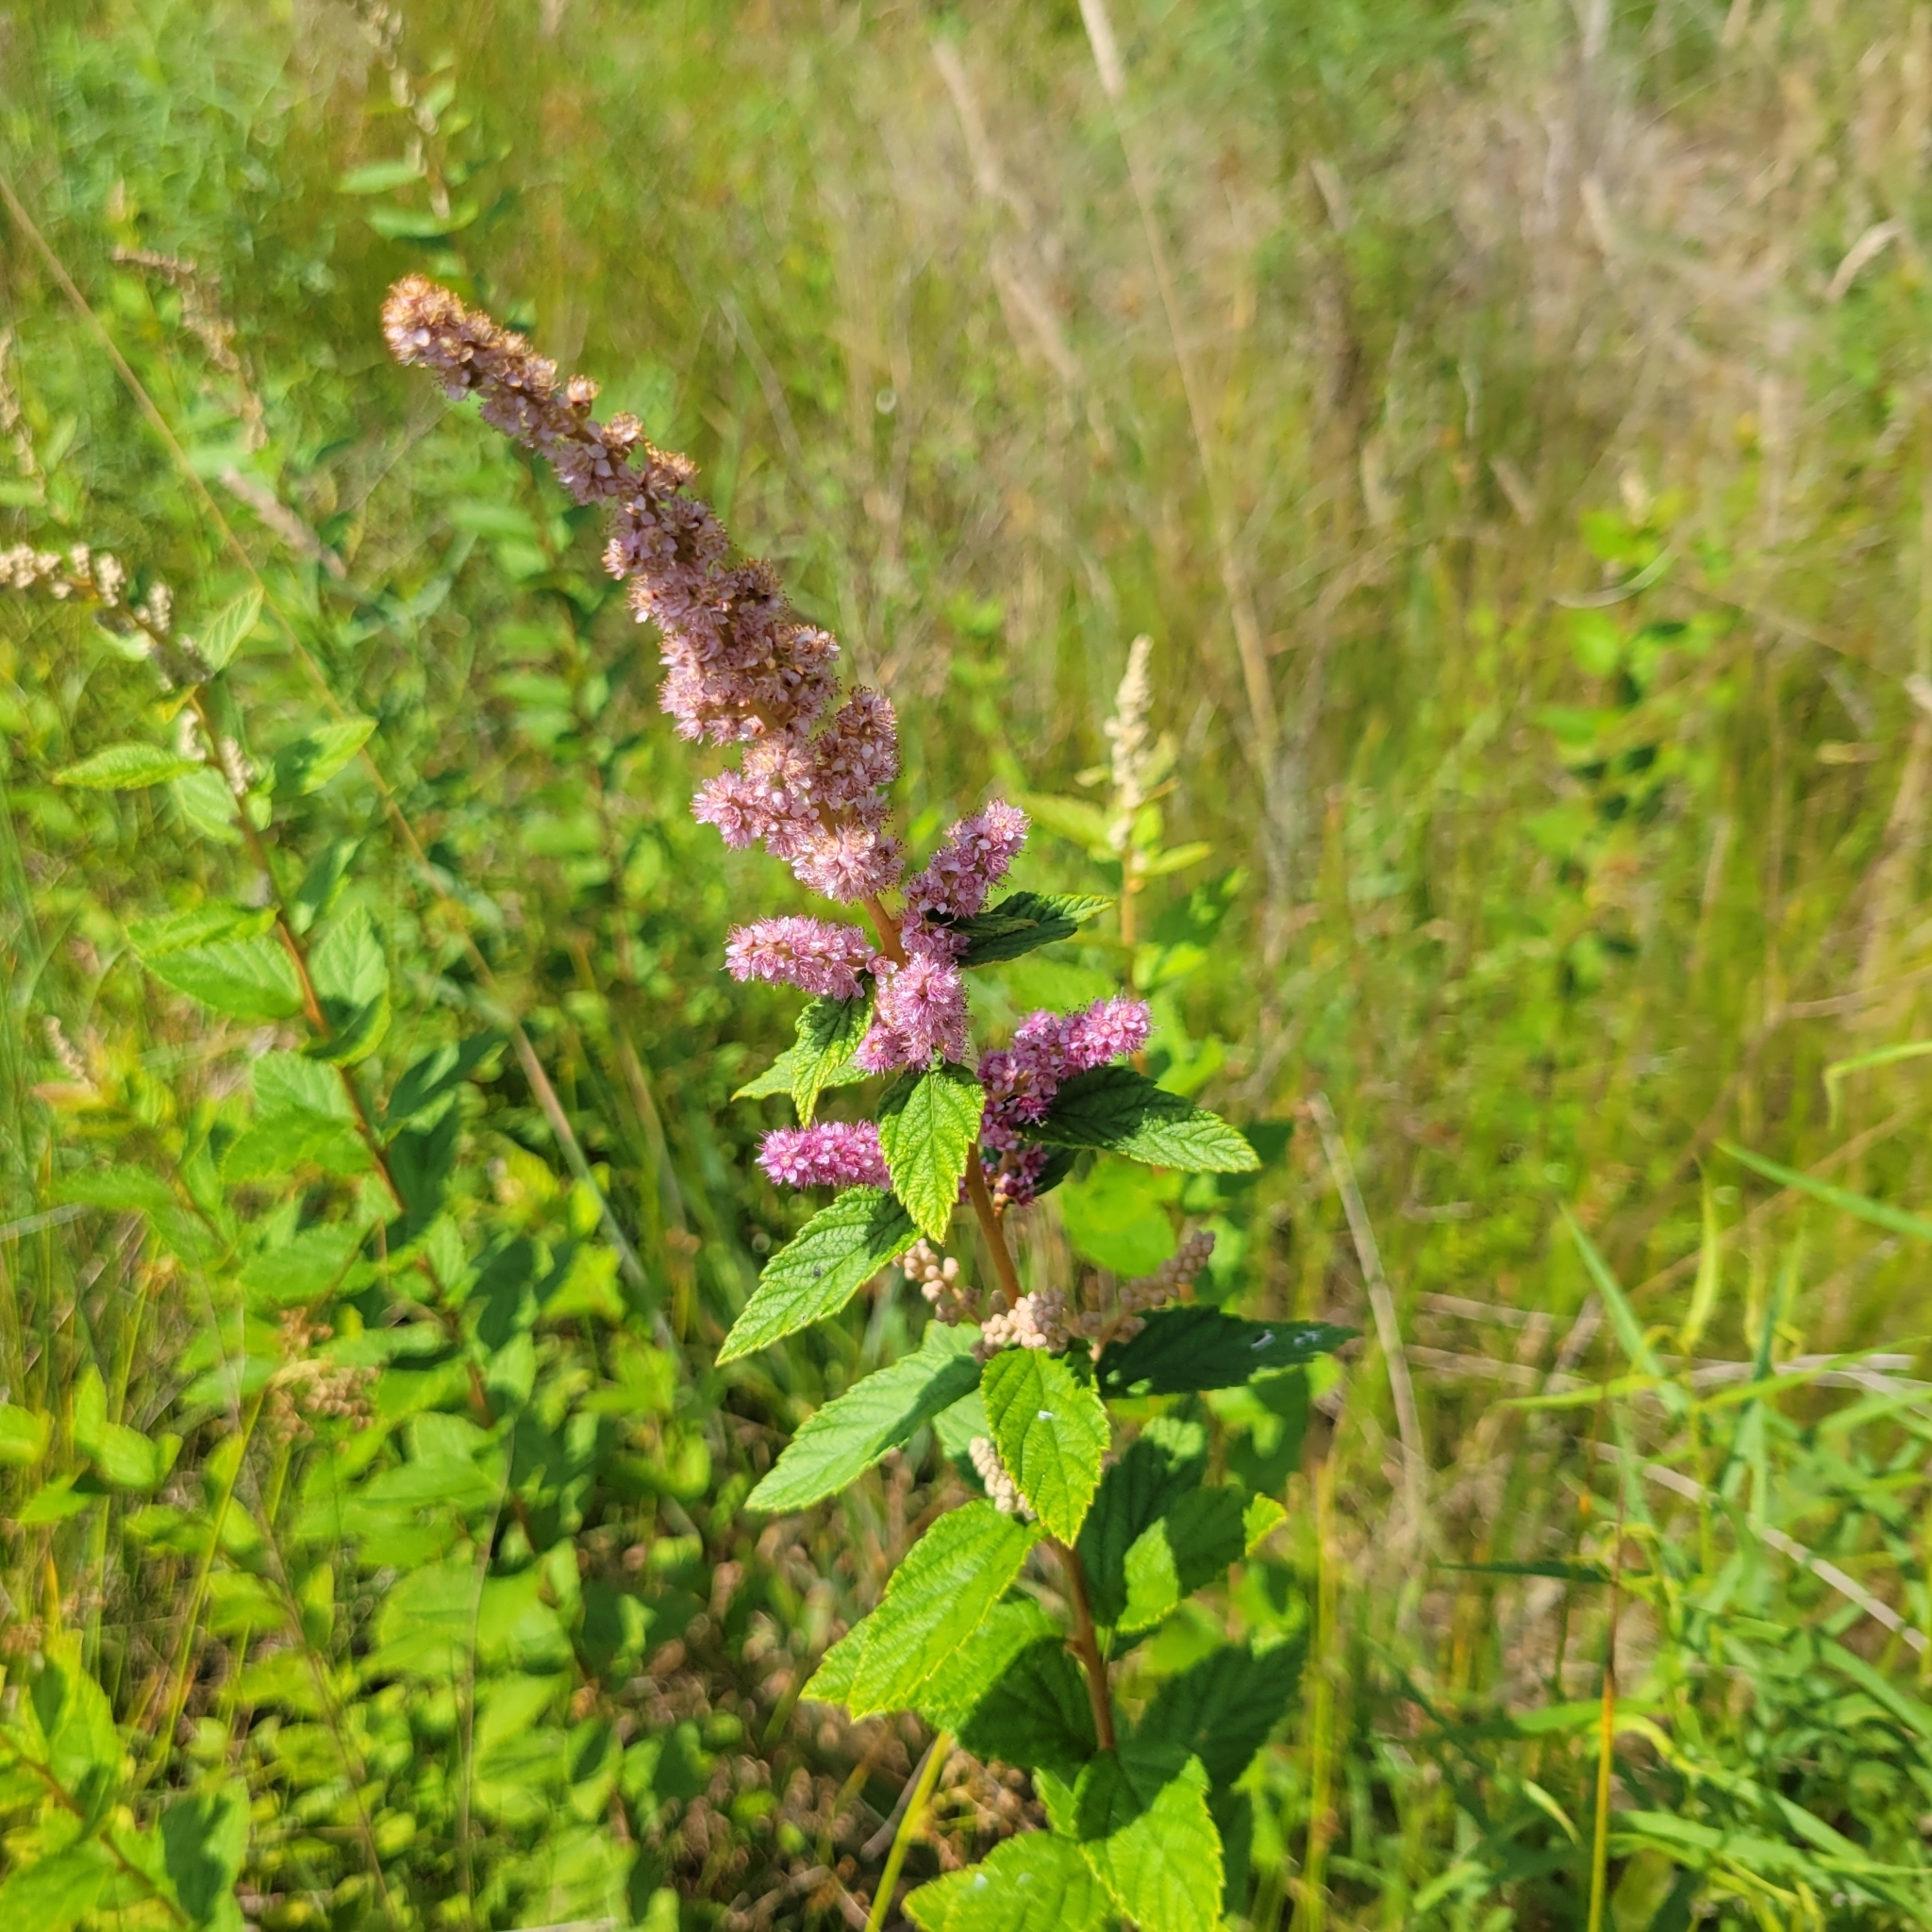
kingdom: Plantae
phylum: Tracheophyta
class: Magnoliopsida
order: Rosales
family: Rosaceae
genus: Spiraea
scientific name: Spiraea tomentosa
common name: Hardhack
